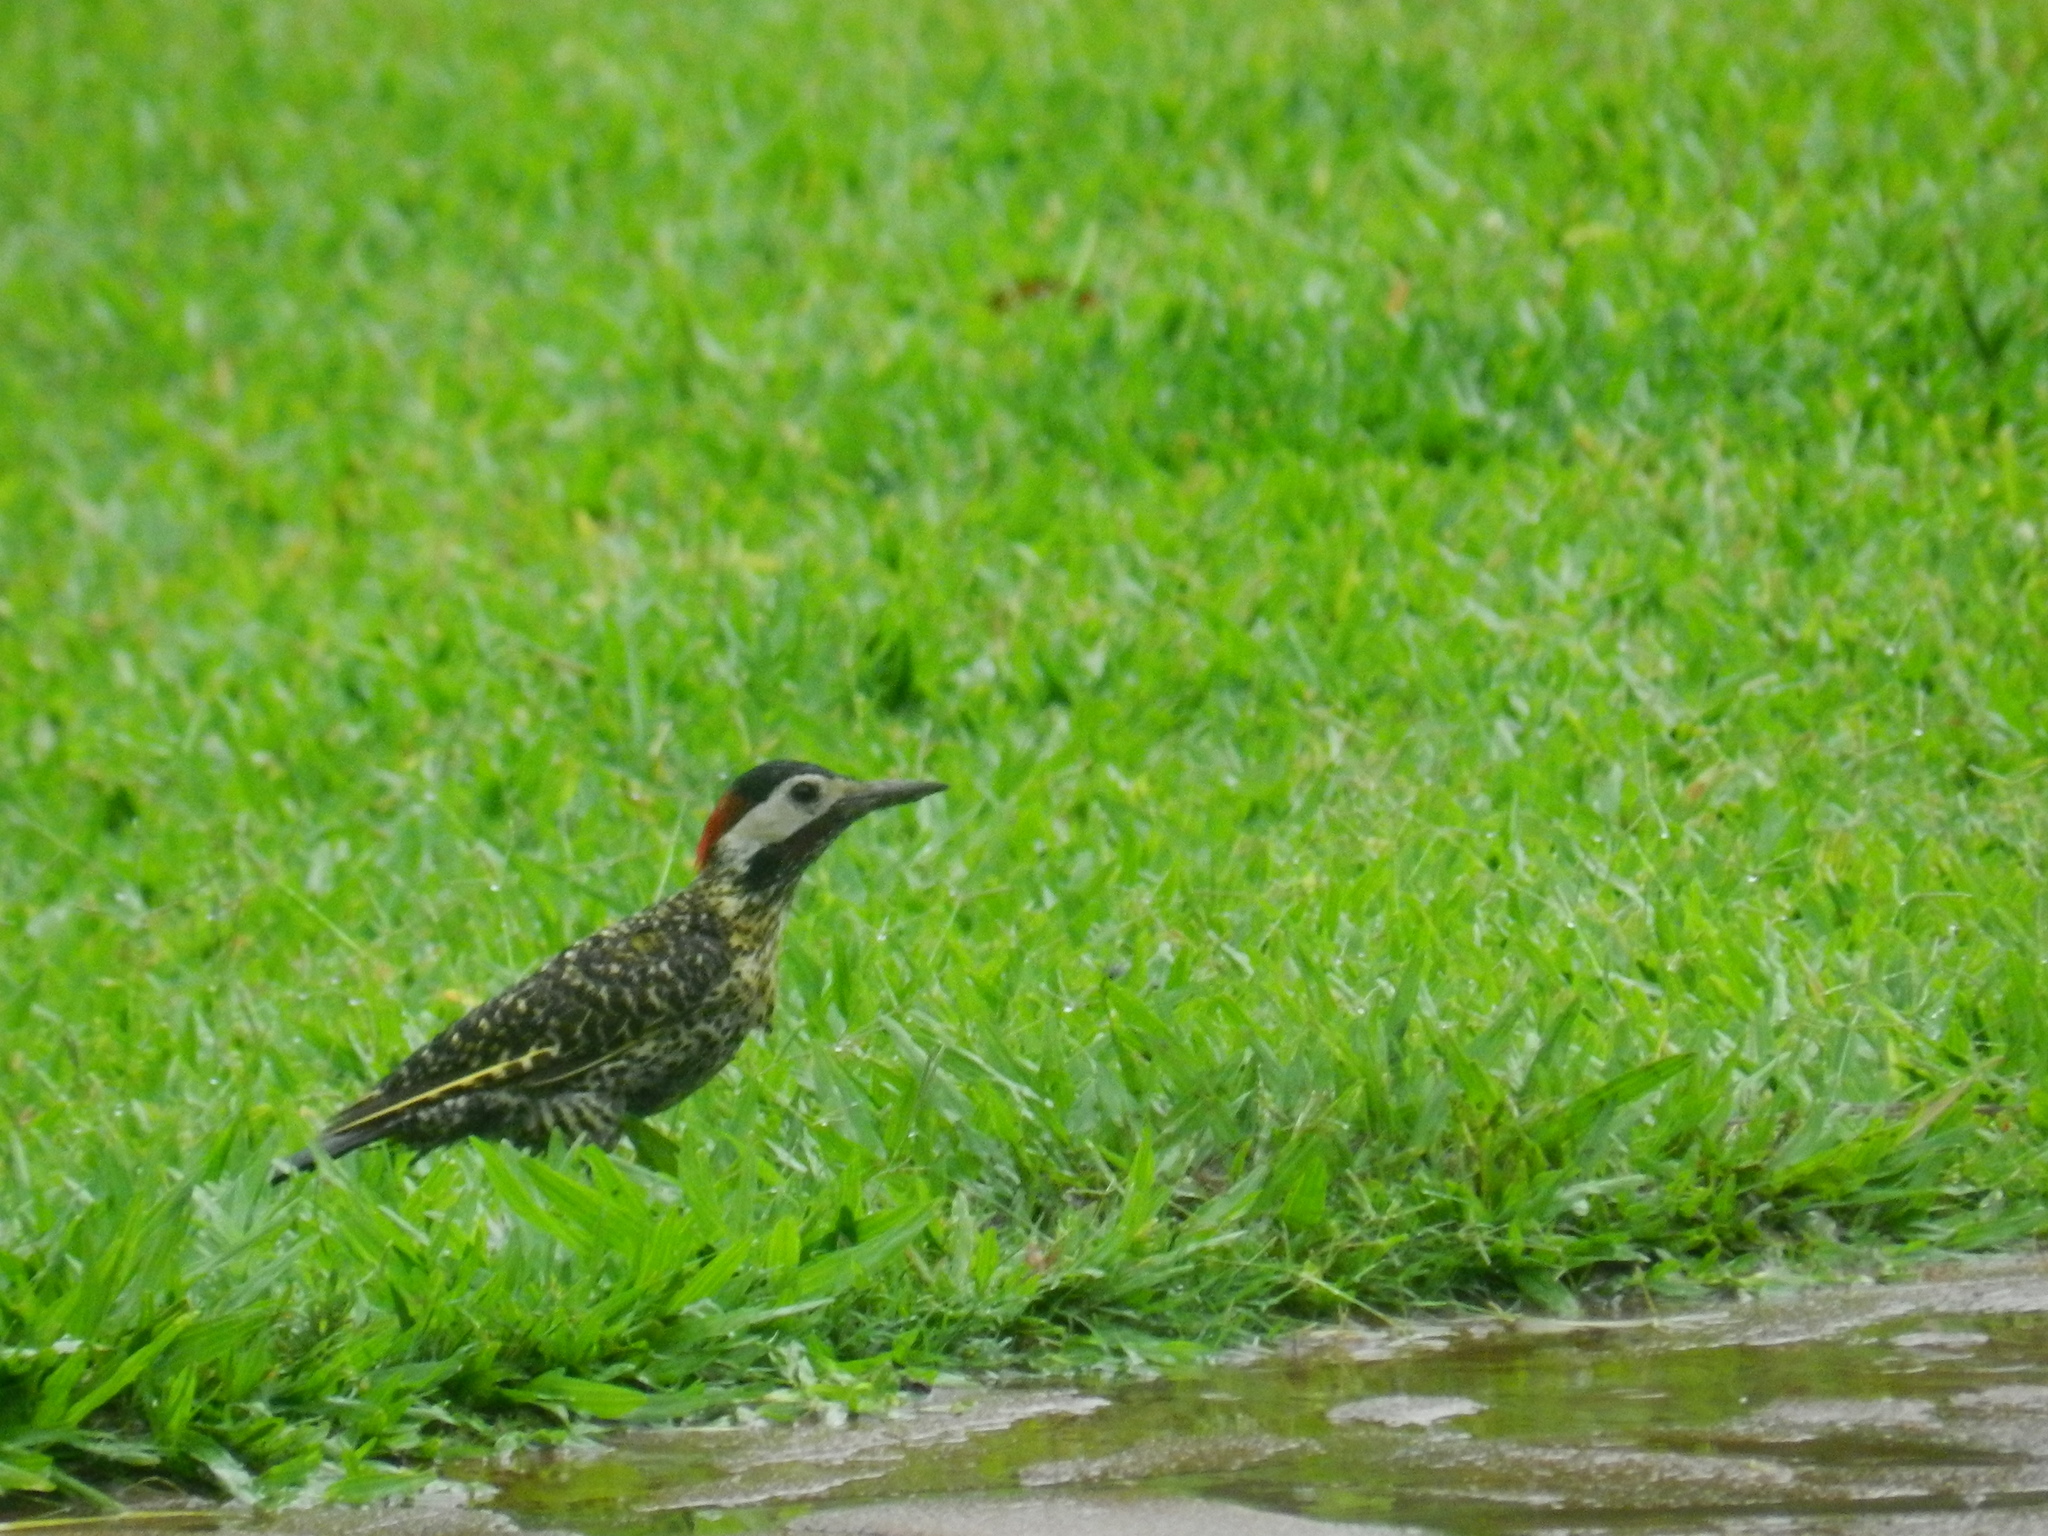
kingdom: Animalia
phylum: Chordata
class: Aves
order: Piciformes
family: Picidae
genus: Colaptes
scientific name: Colaptes melanochloros
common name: Green-barred woodpecker
